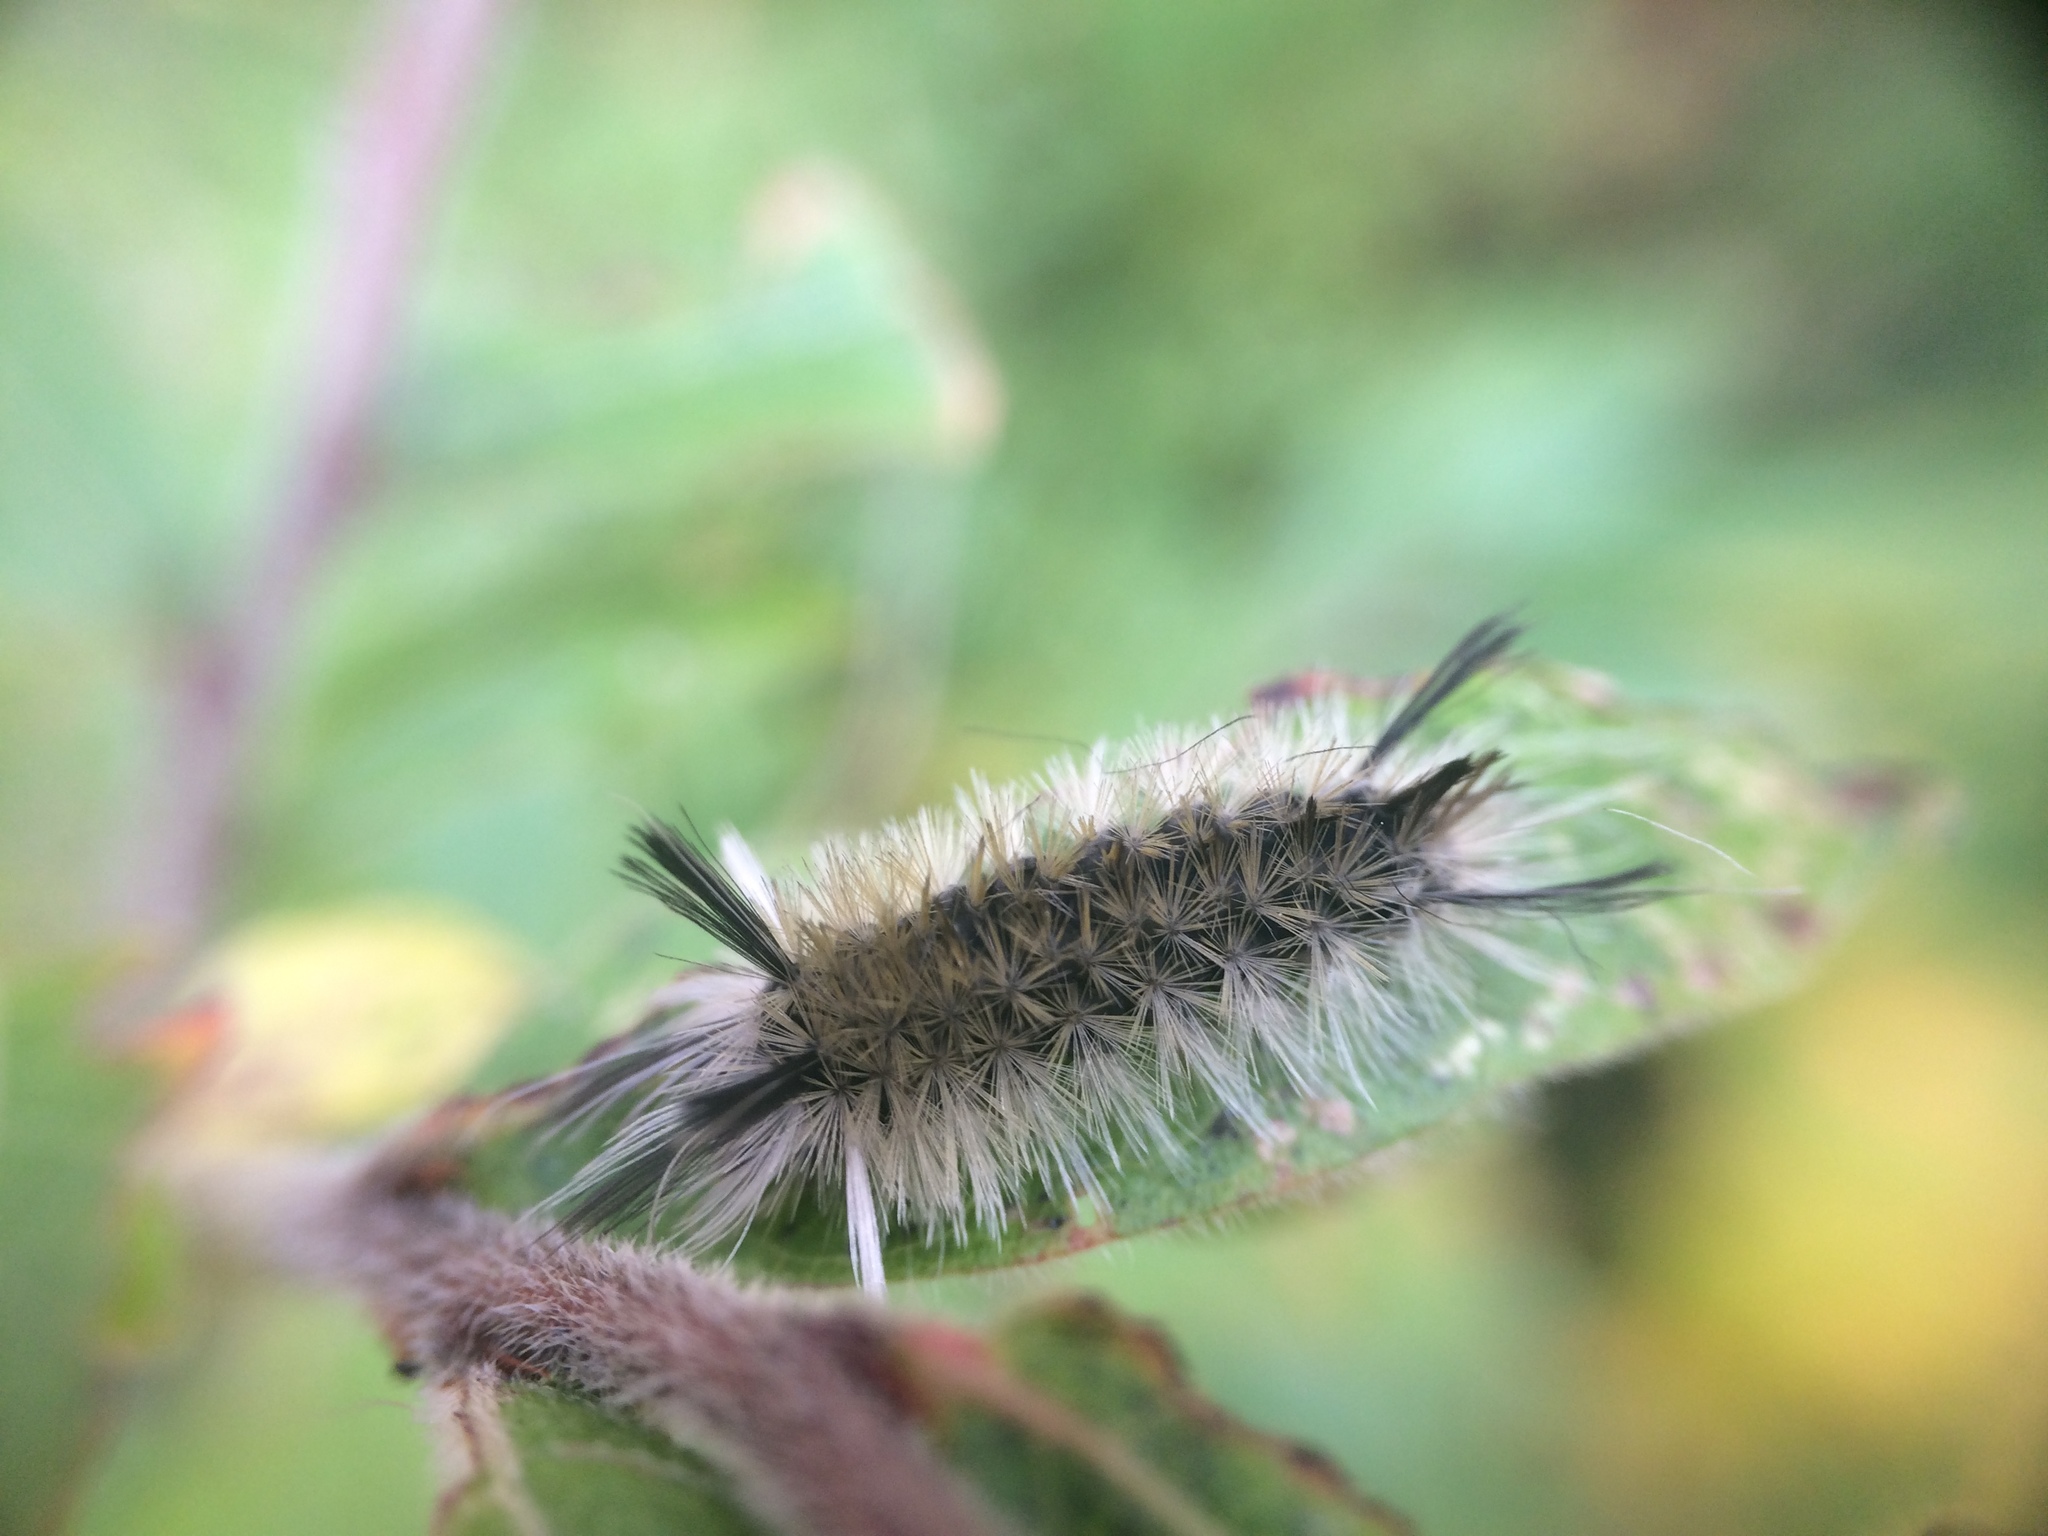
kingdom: Animalia
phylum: Arthropoda
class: Insecta
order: Lepidoptera
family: Erebidae
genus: Halysidota
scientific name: Halysidota tessellaris
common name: Banded tussock moth
